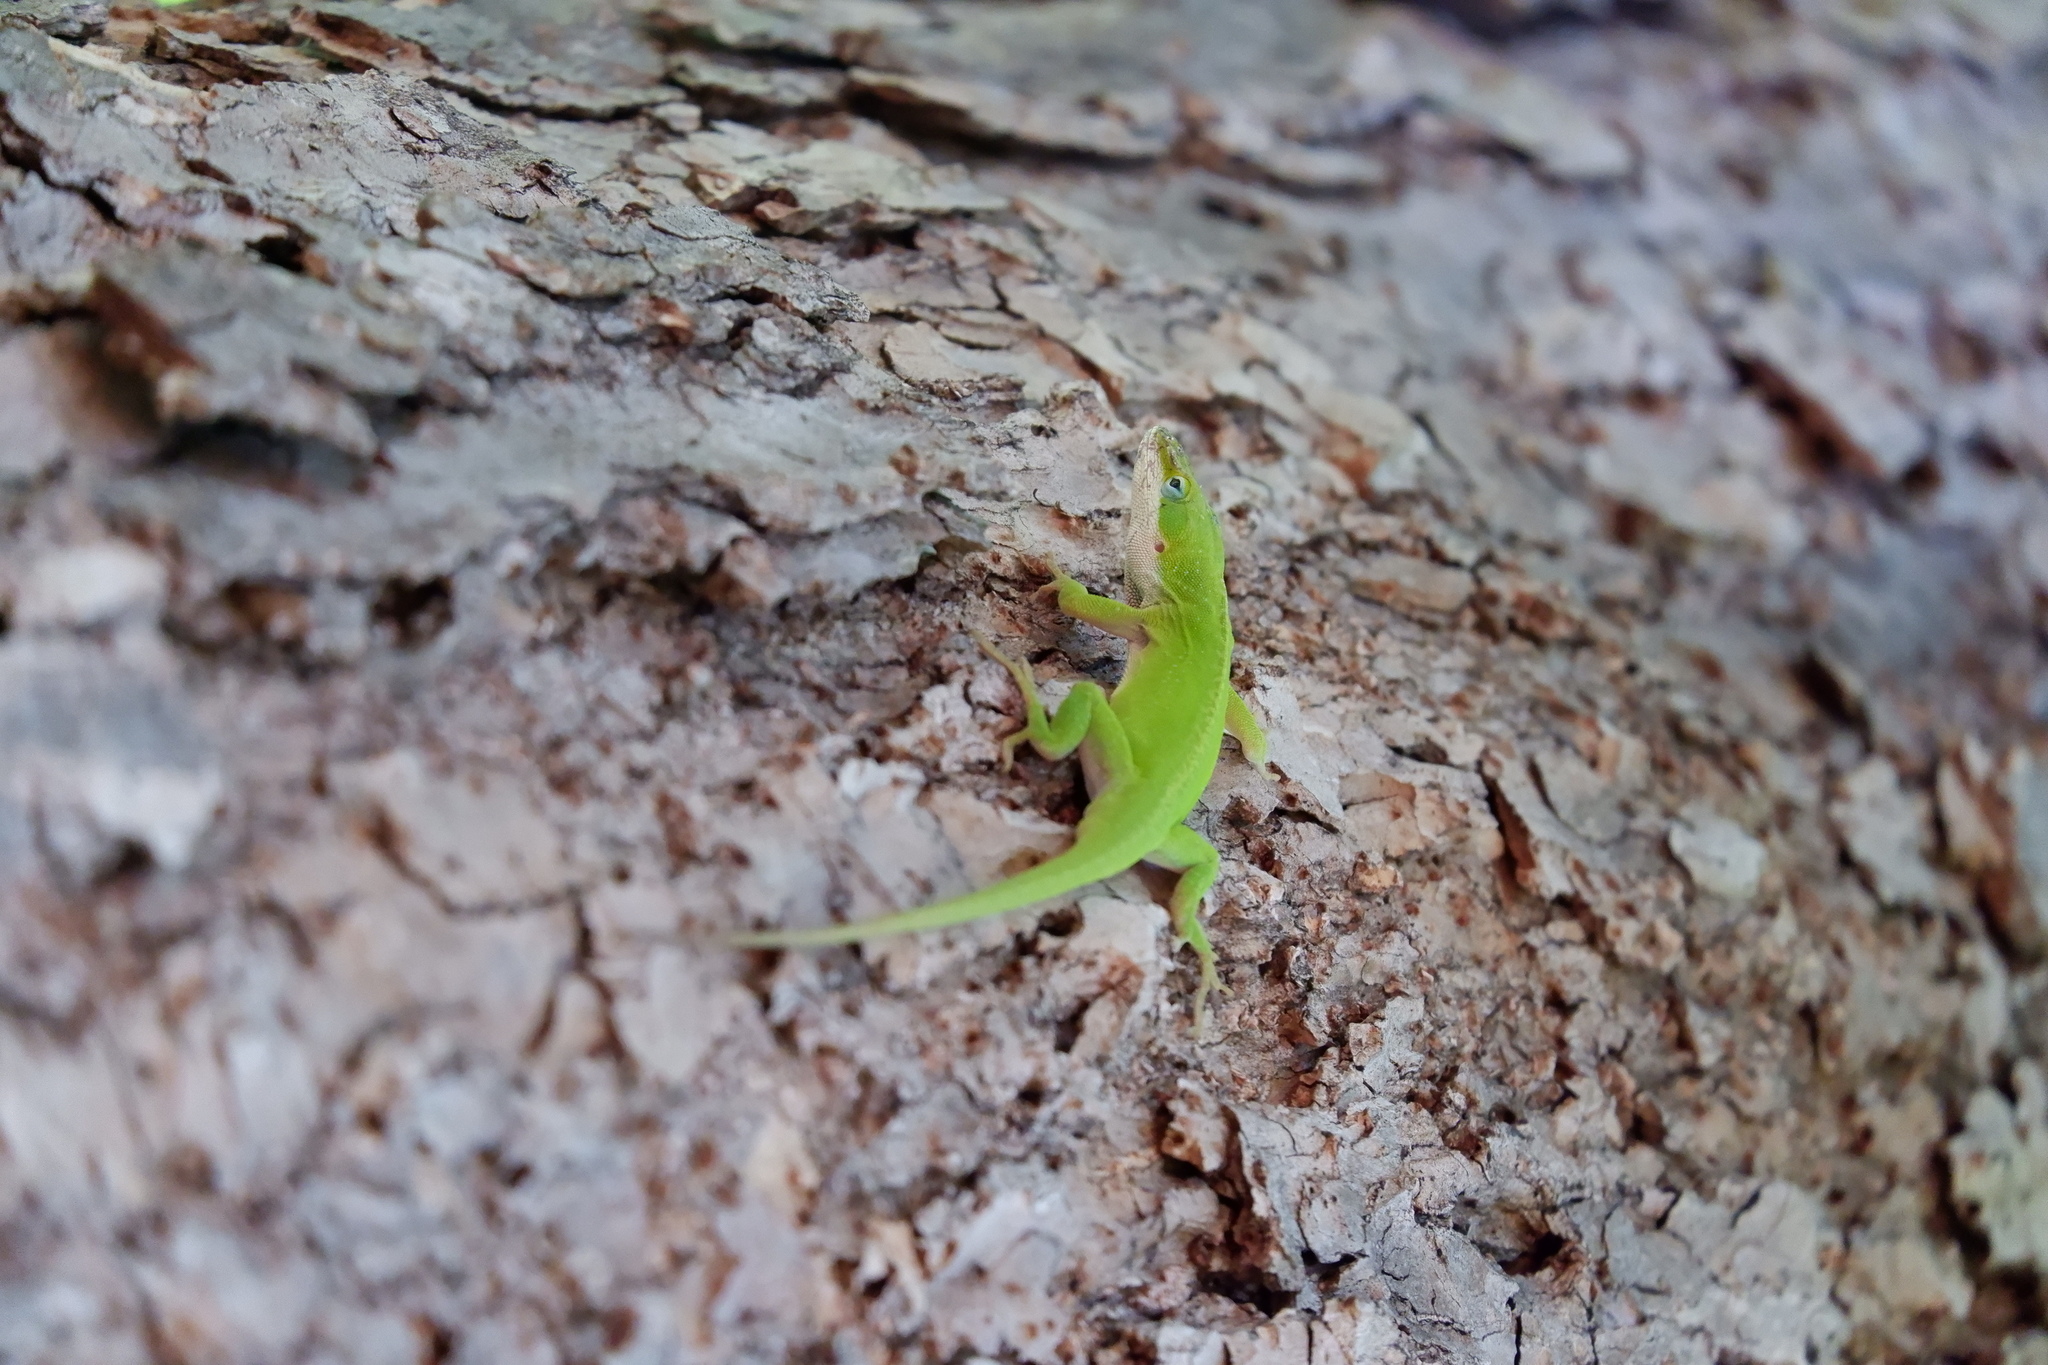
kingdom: Animalia
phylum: Chordata
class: Squamata
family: Dactyloidae
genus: Anolis
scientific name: Anolis carolinensis
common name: Green anole
